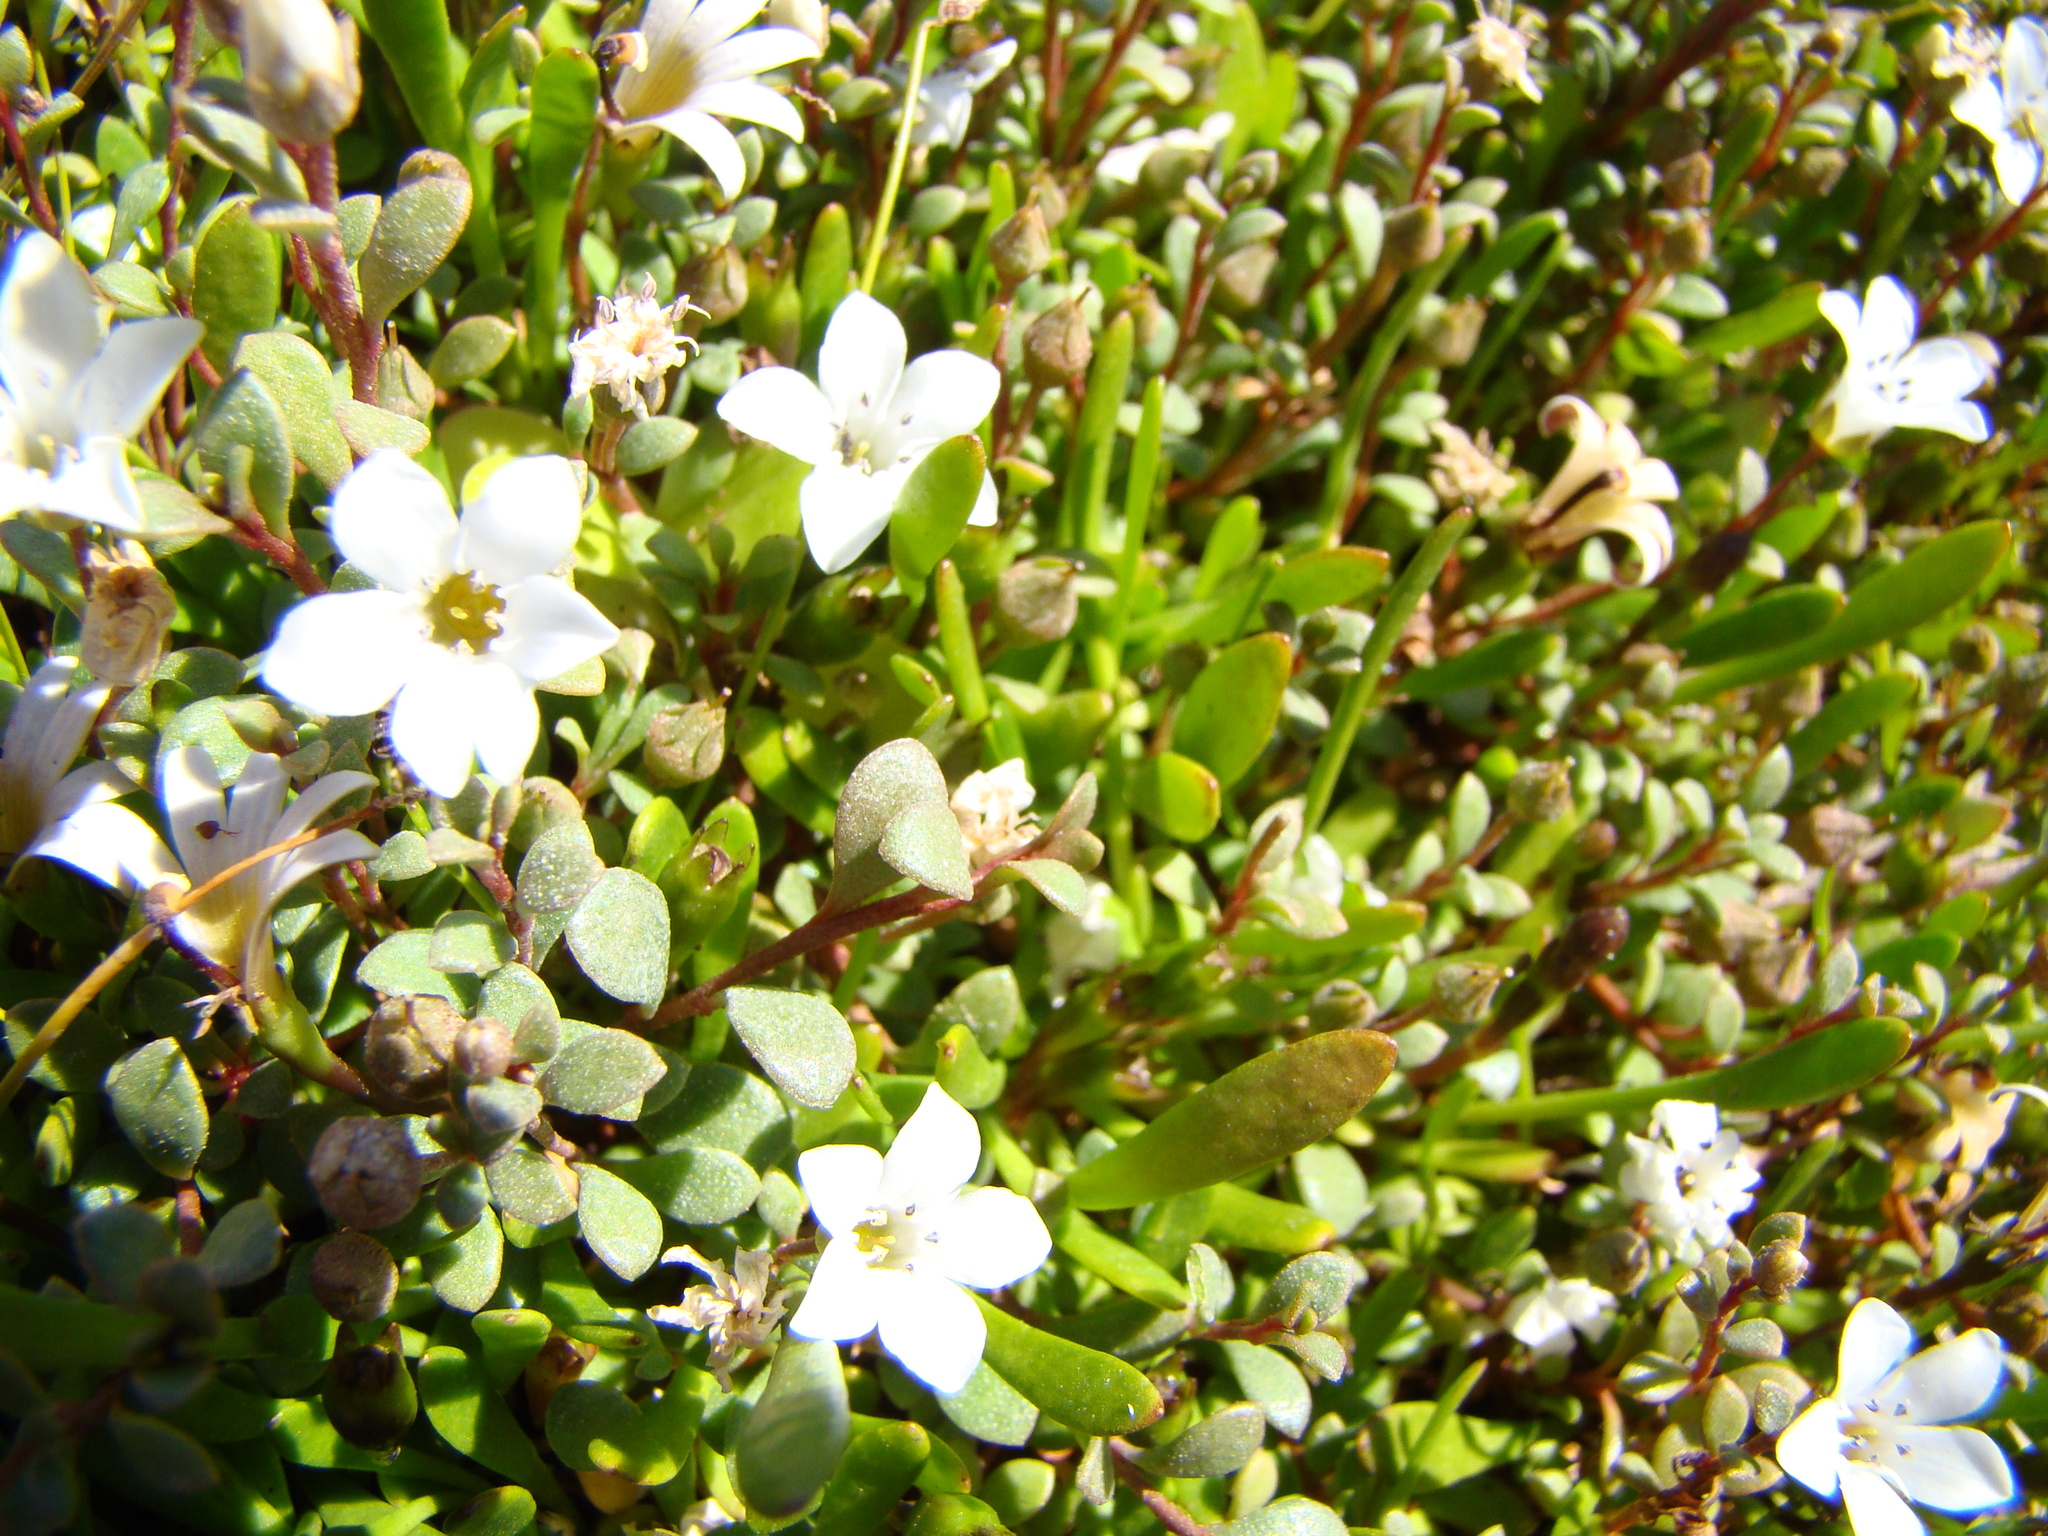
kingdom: Plantae
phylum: Tracheophyta
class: Magnoliopsida
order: Ericales
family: Primulaceae
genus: Samolus
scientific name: Samolus repens
